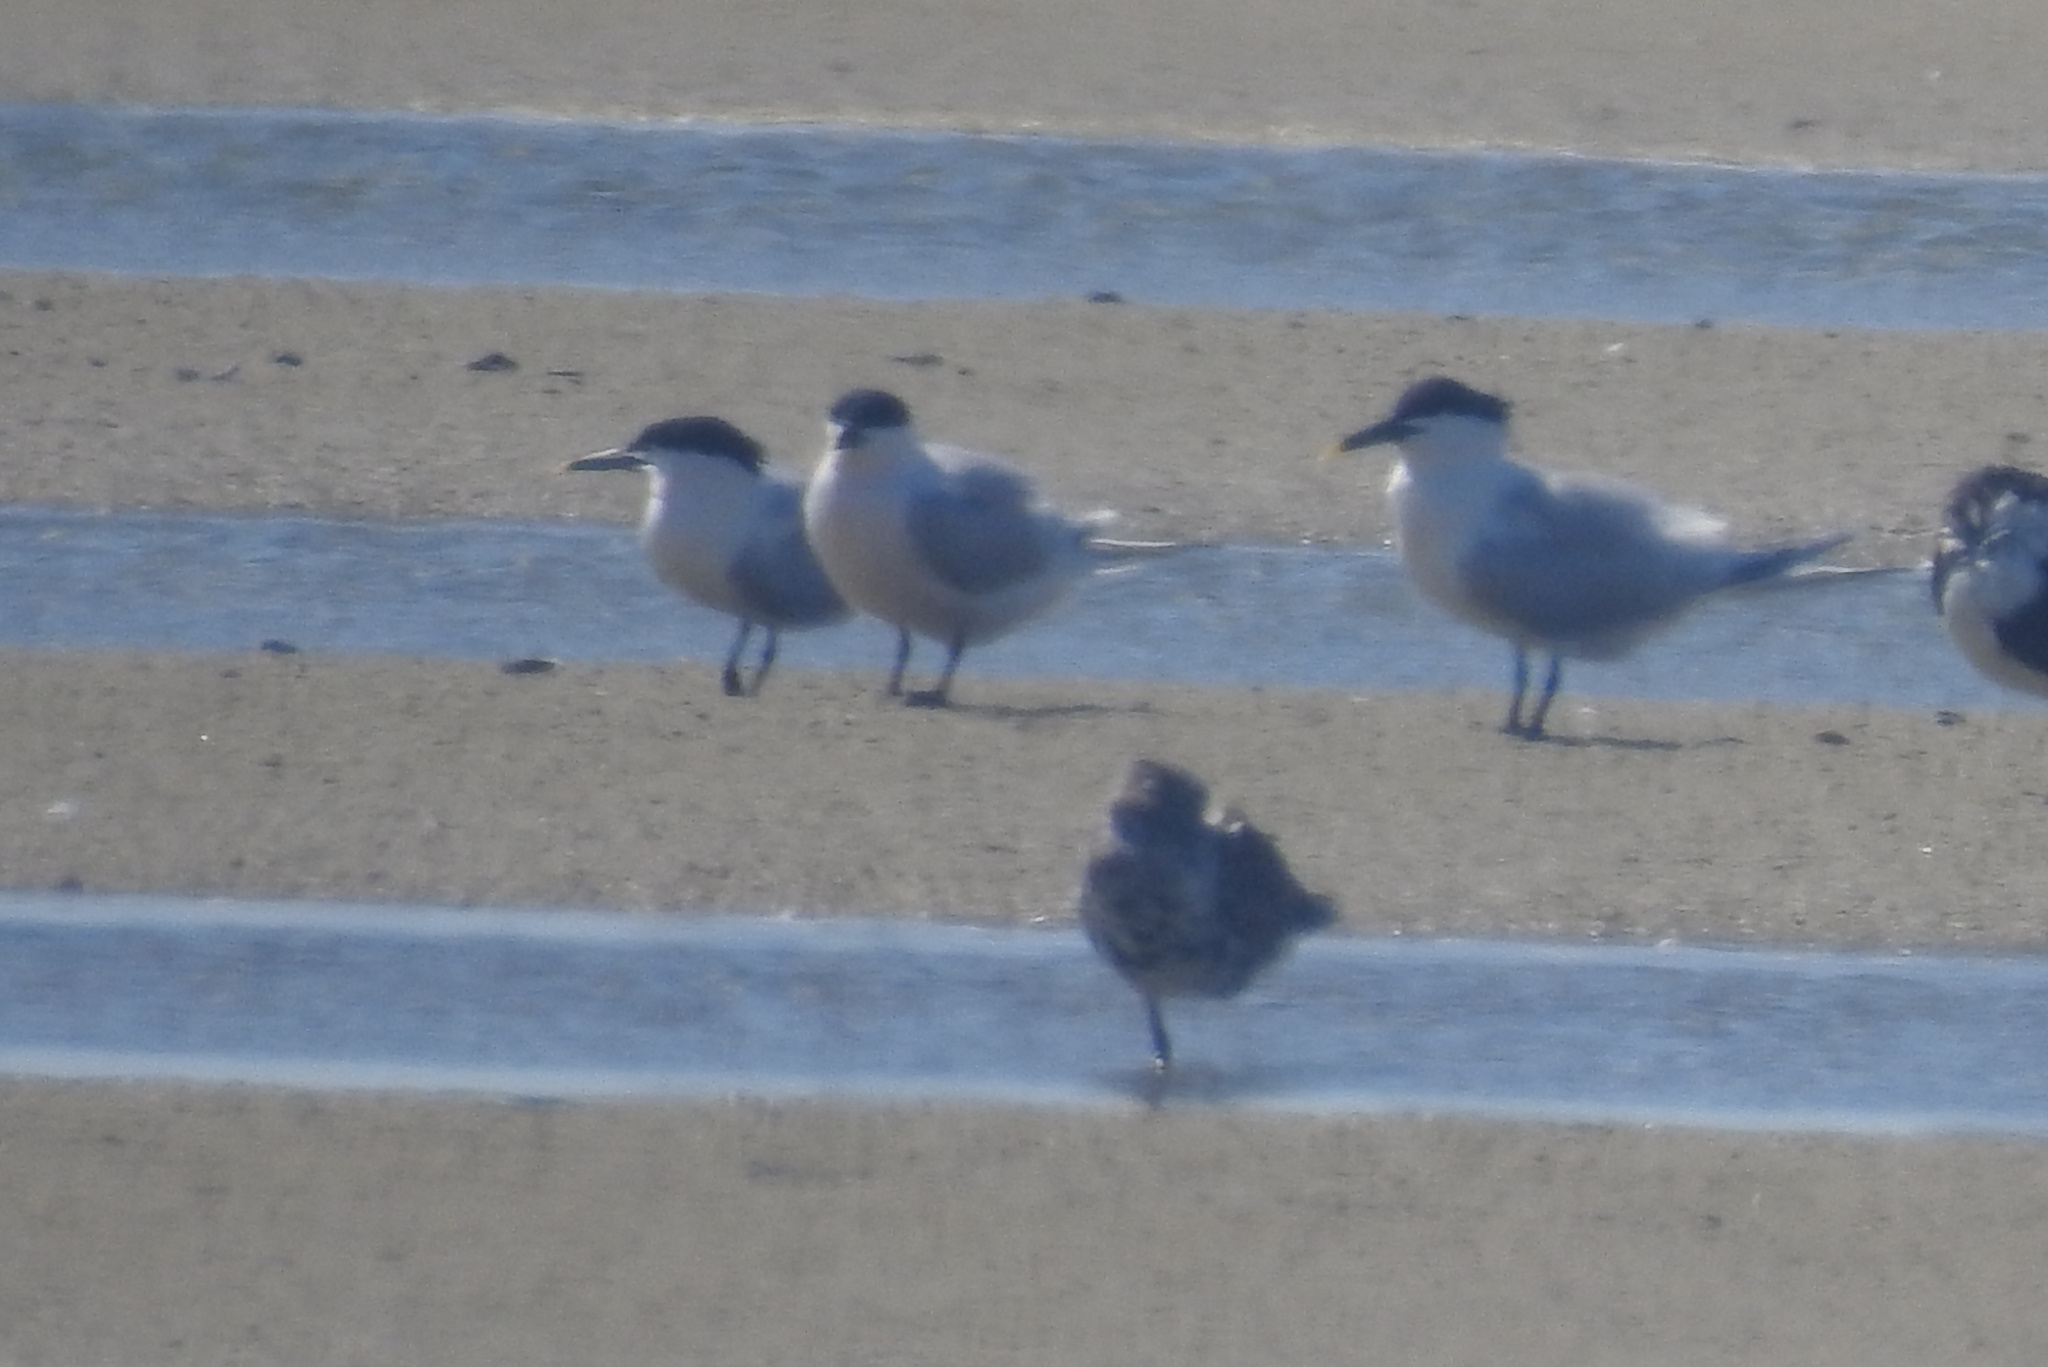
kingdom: Animalia
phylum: Chordata
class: Aves
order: Charadriiformes
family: Laridae
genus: Thalasseus
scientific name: Thalasseus sandvicensis
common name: Sandwich tern
